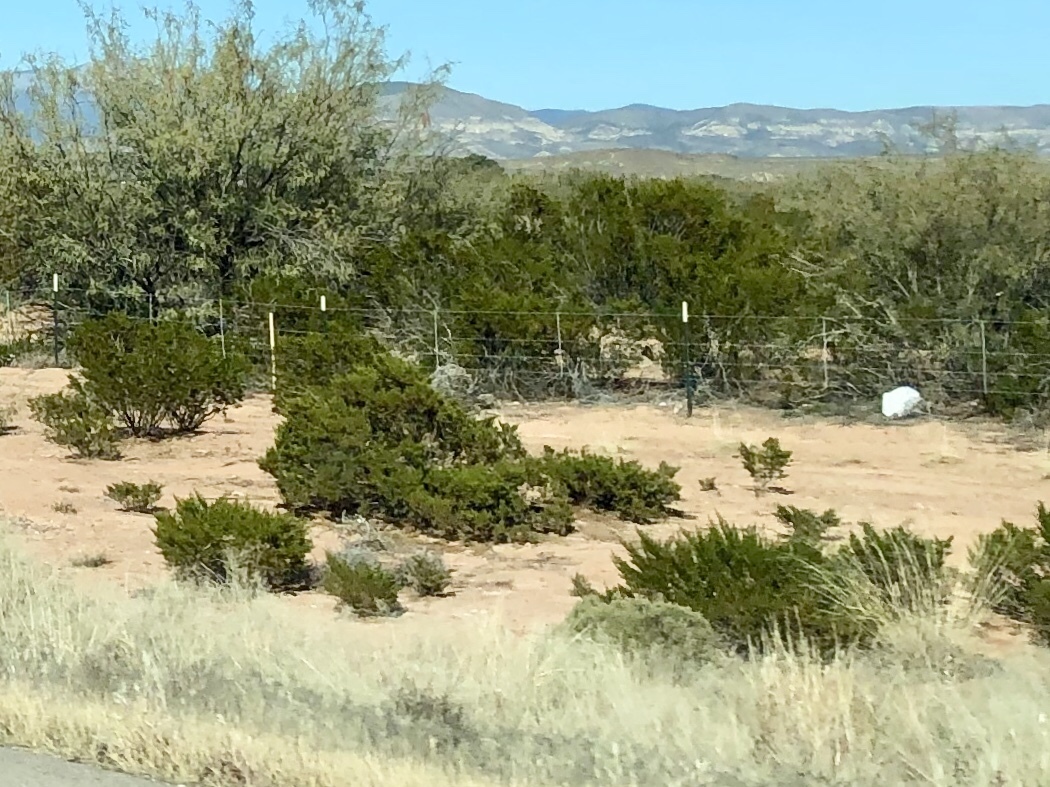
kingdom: Plantae
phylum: Tracheophyta
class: Magnoliopsida
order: Zygophyllales
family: Zygophyllaceae
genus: Larrea
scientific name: Larrea tridentata
